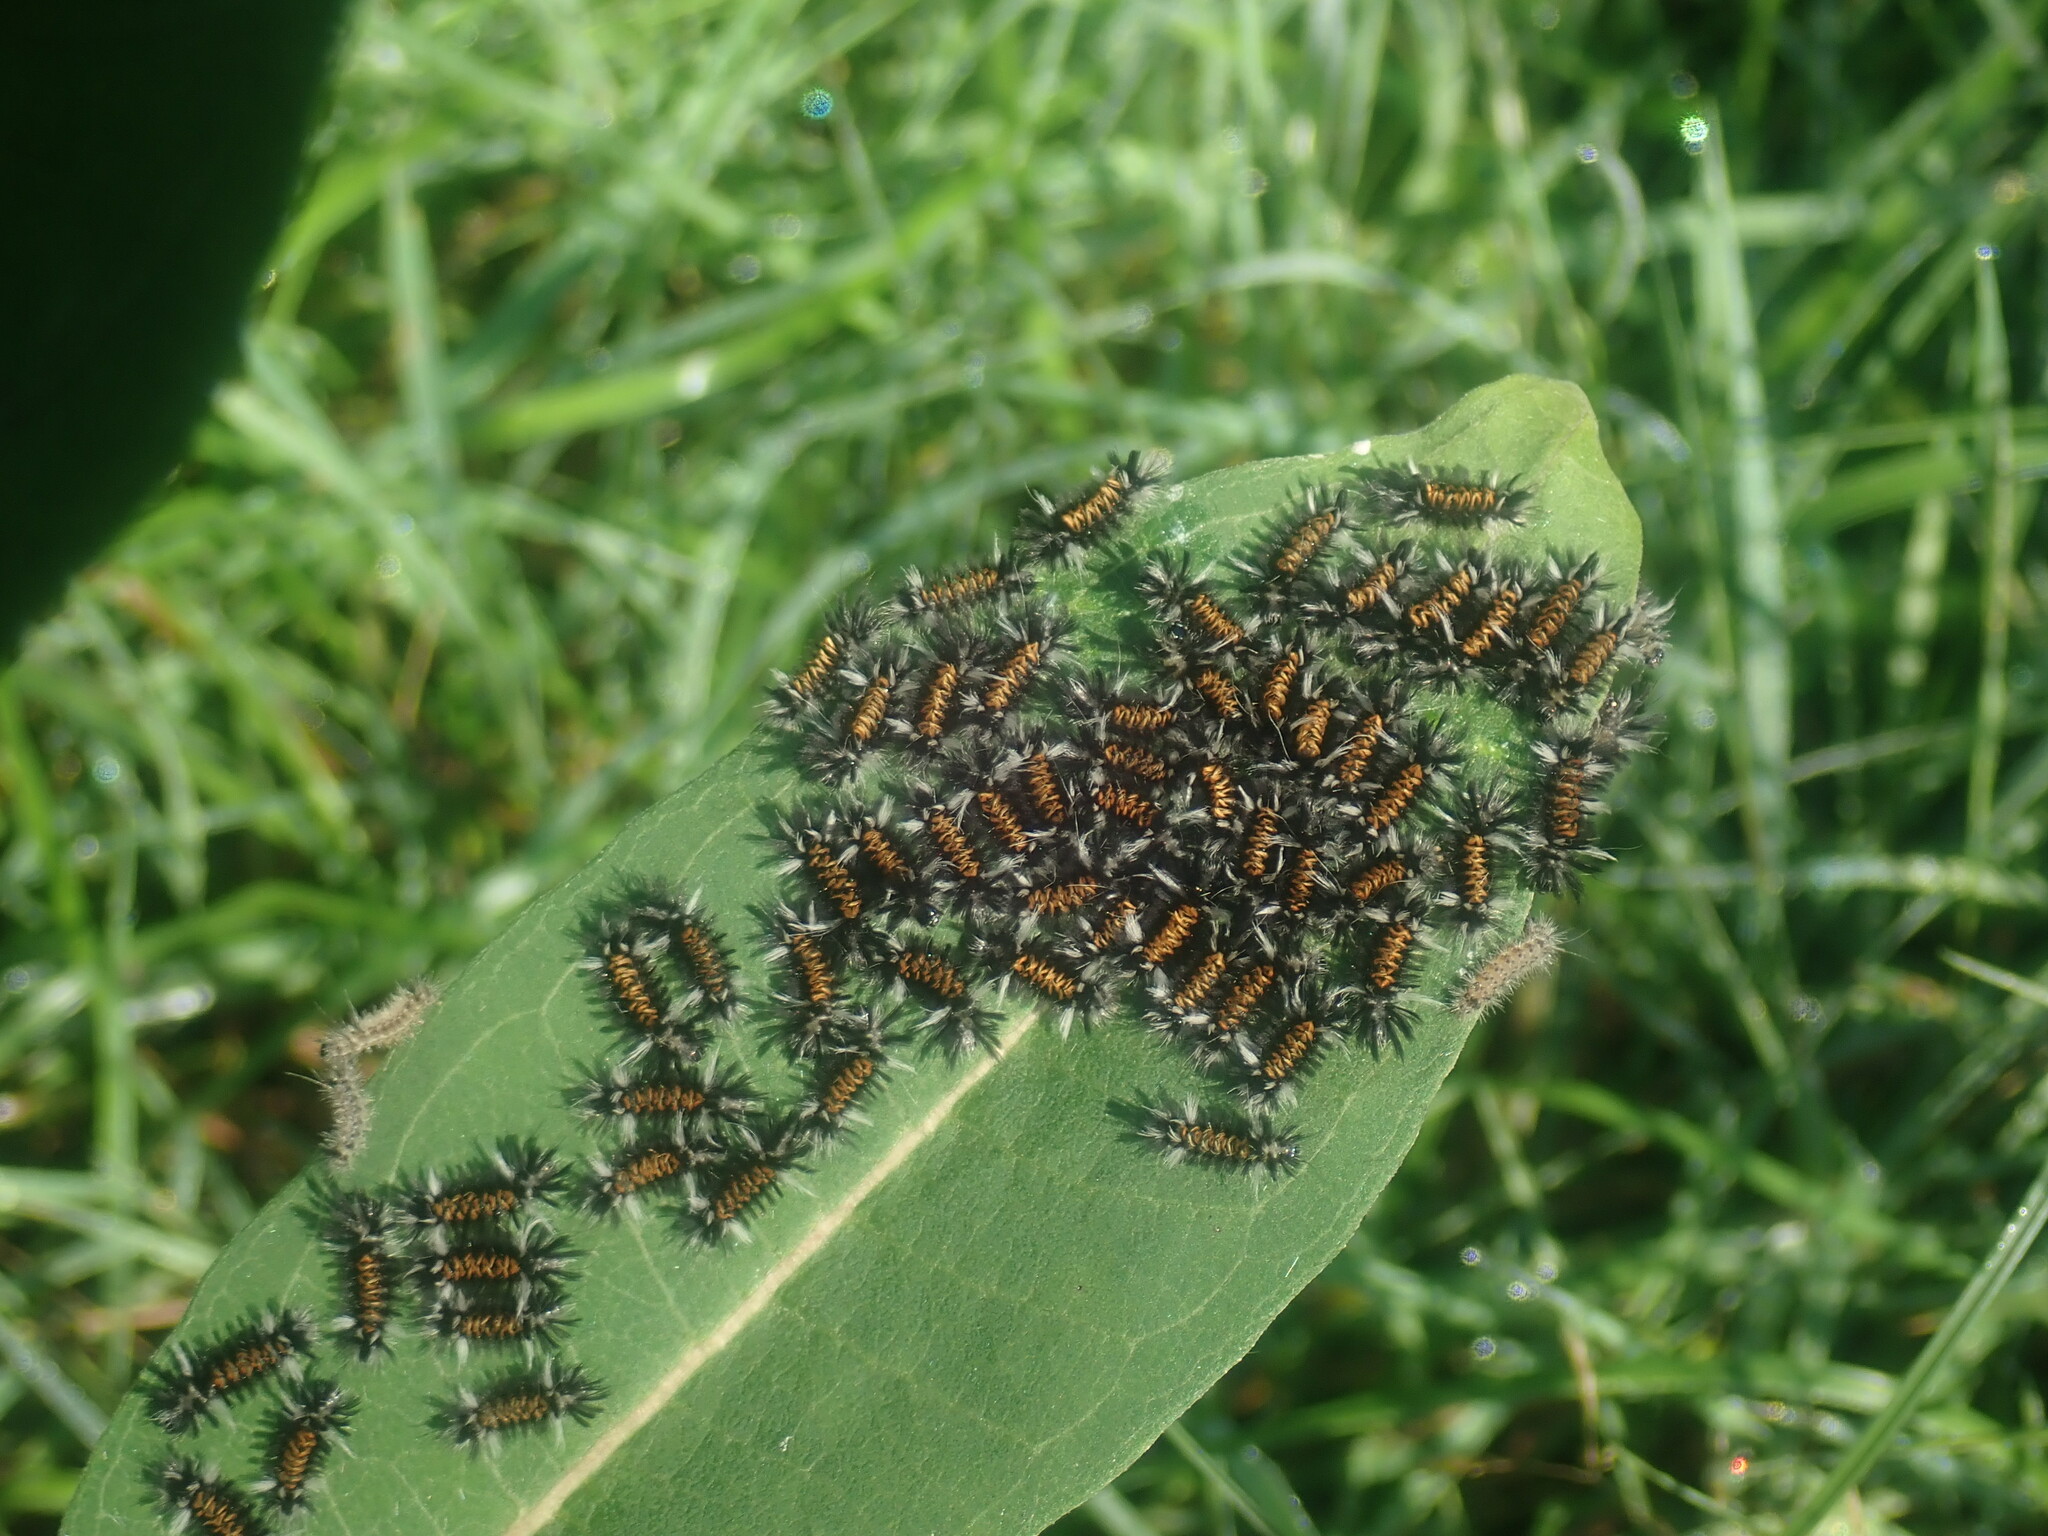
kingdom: Animalia
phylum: Arthropoda
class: Insecta
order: Lepidoptera
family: Erebidae
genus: Euchaetes
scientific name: Euchaetes egle
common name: Milkweed tussock moth
